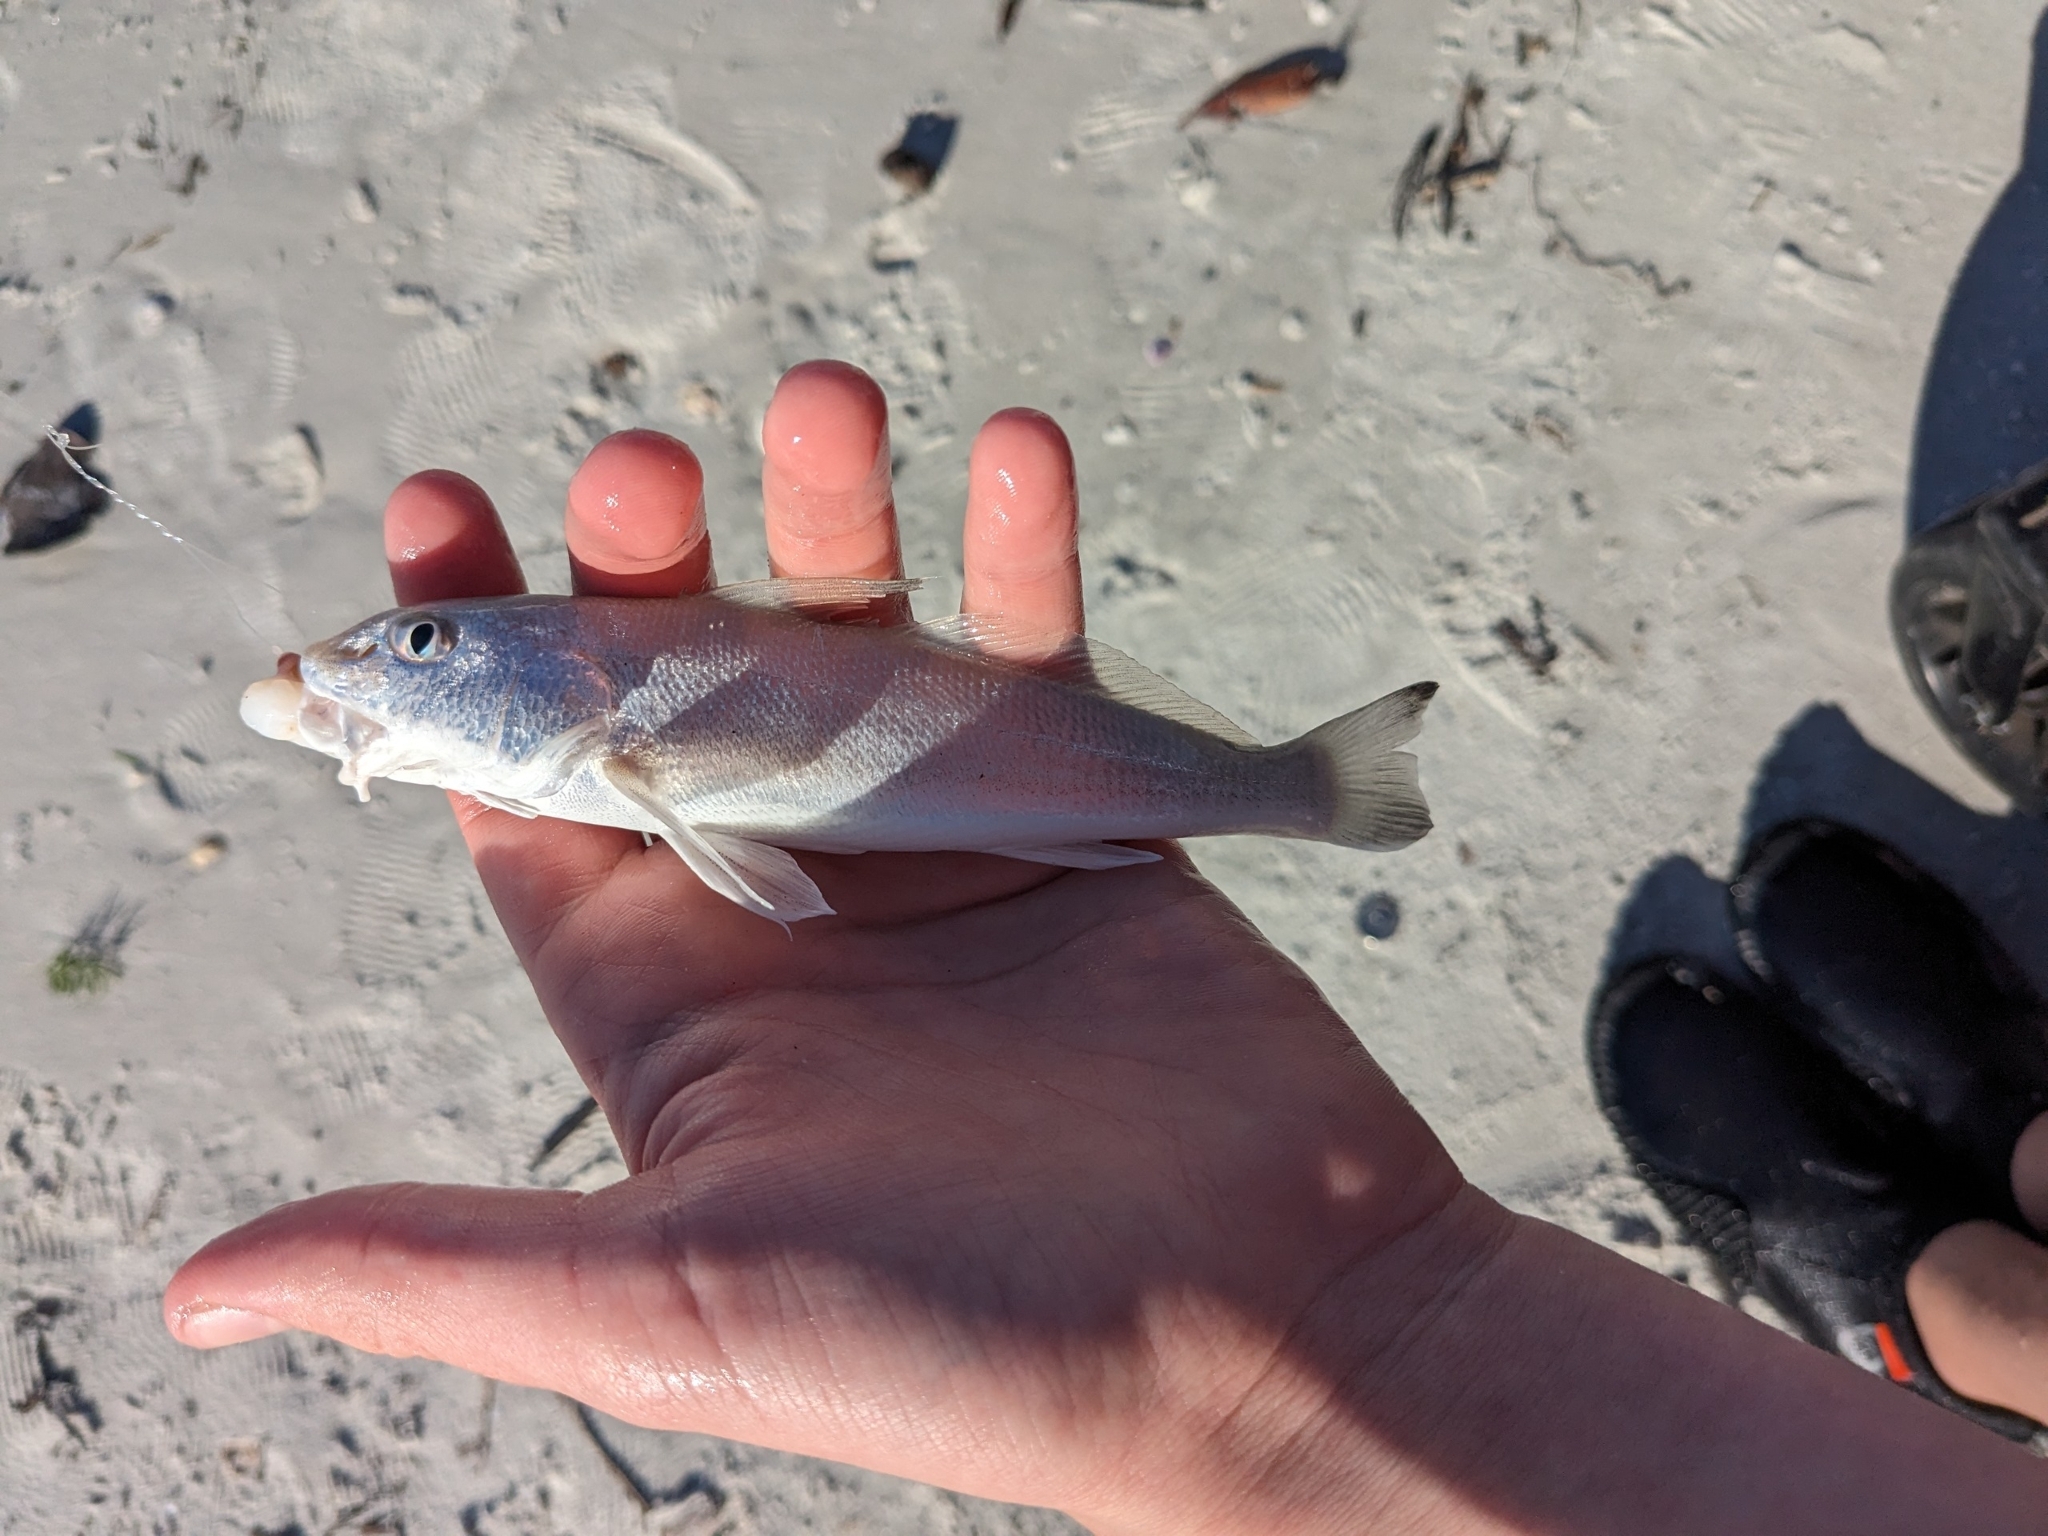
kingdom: Animalia
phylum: Chordata
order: Perciformes
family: Sciaenidae
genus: Menticirrhus
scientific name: Menticirrhus littoralis
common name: Gulf kingcroaker
